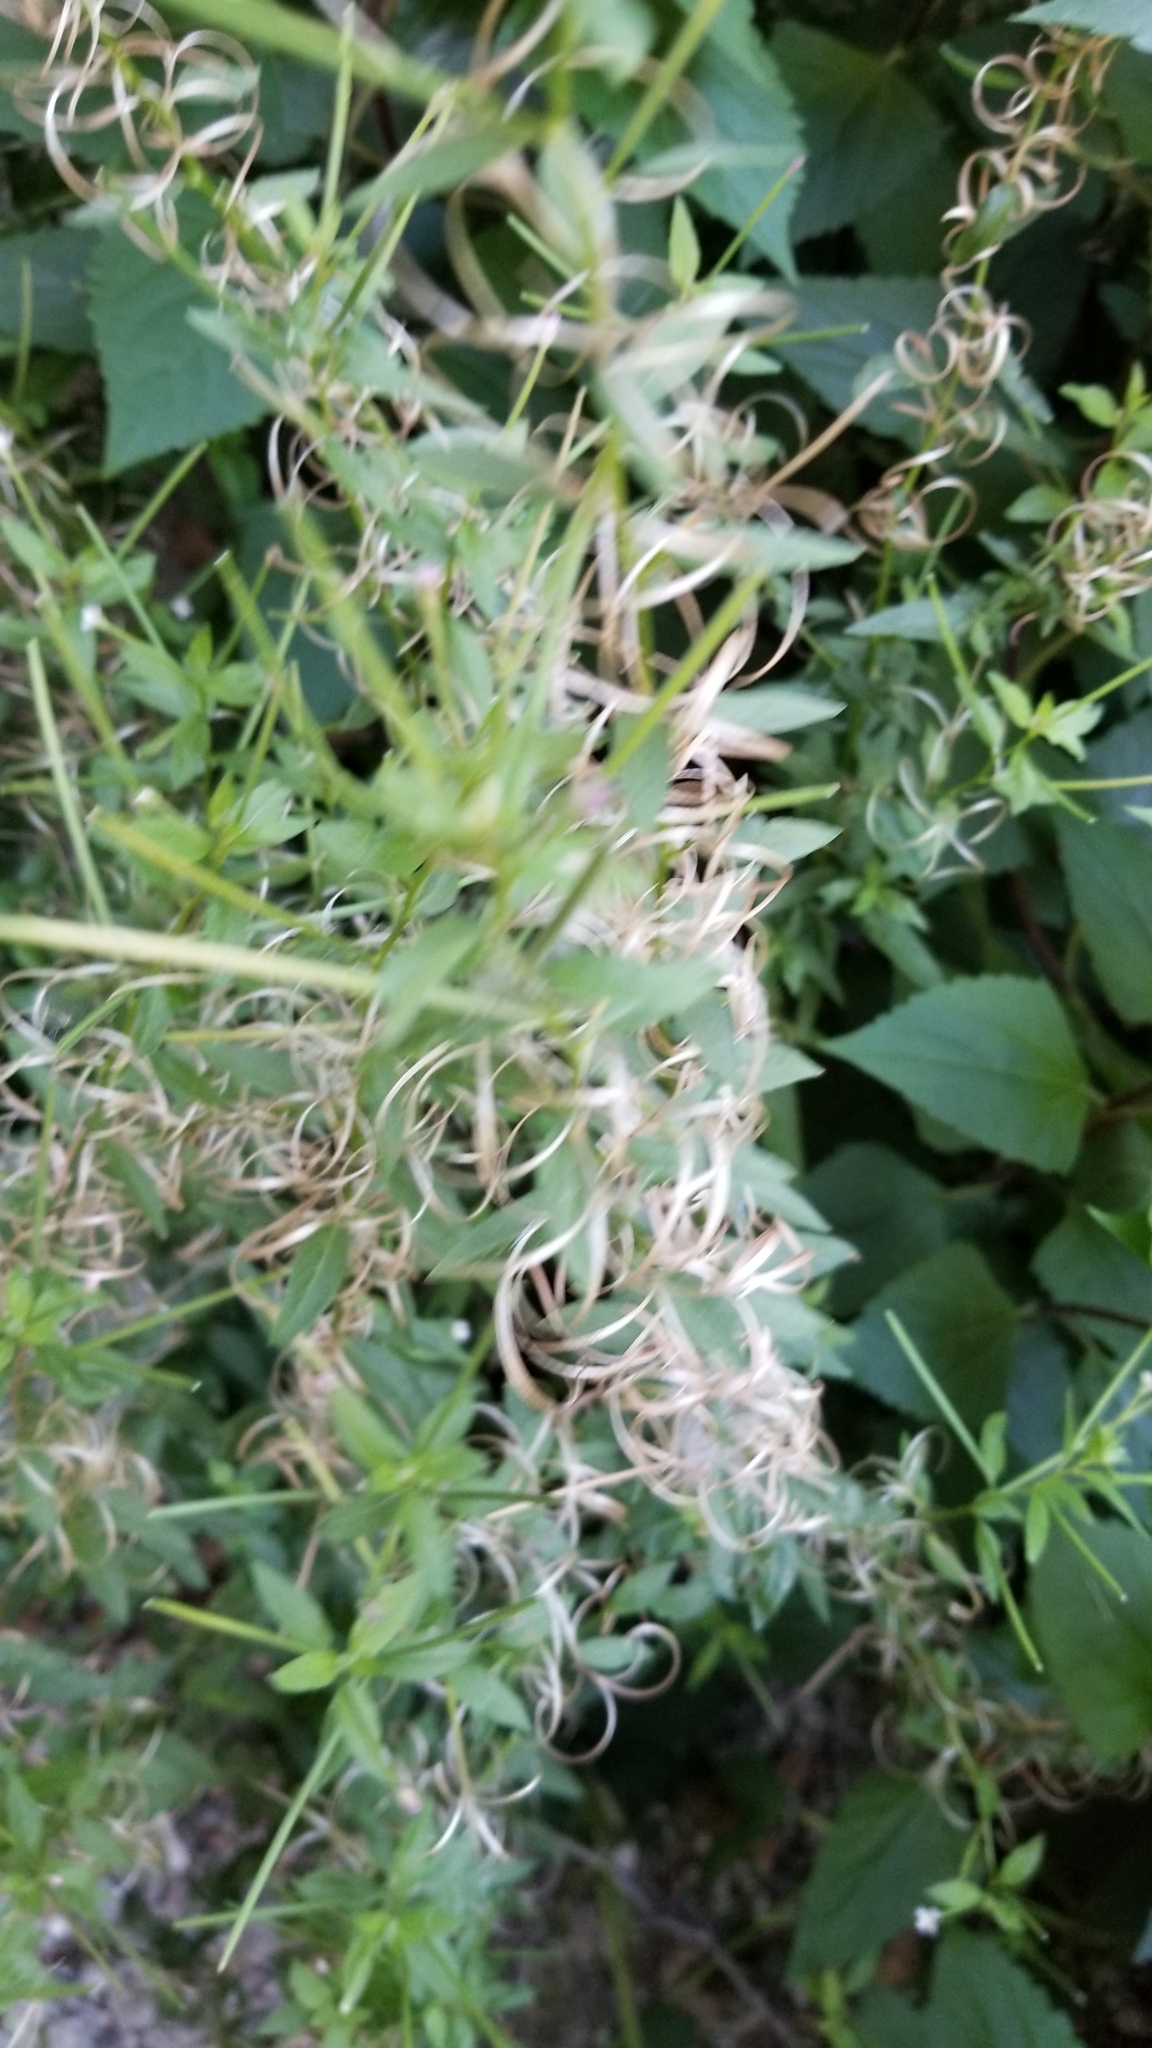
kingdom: Plantae
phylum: Tracheophyta
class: Magnoliopsida
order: Myrtales
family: Onagraceae
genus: Epilobium
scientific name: Epilobium ciliatum
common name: American willowherb
